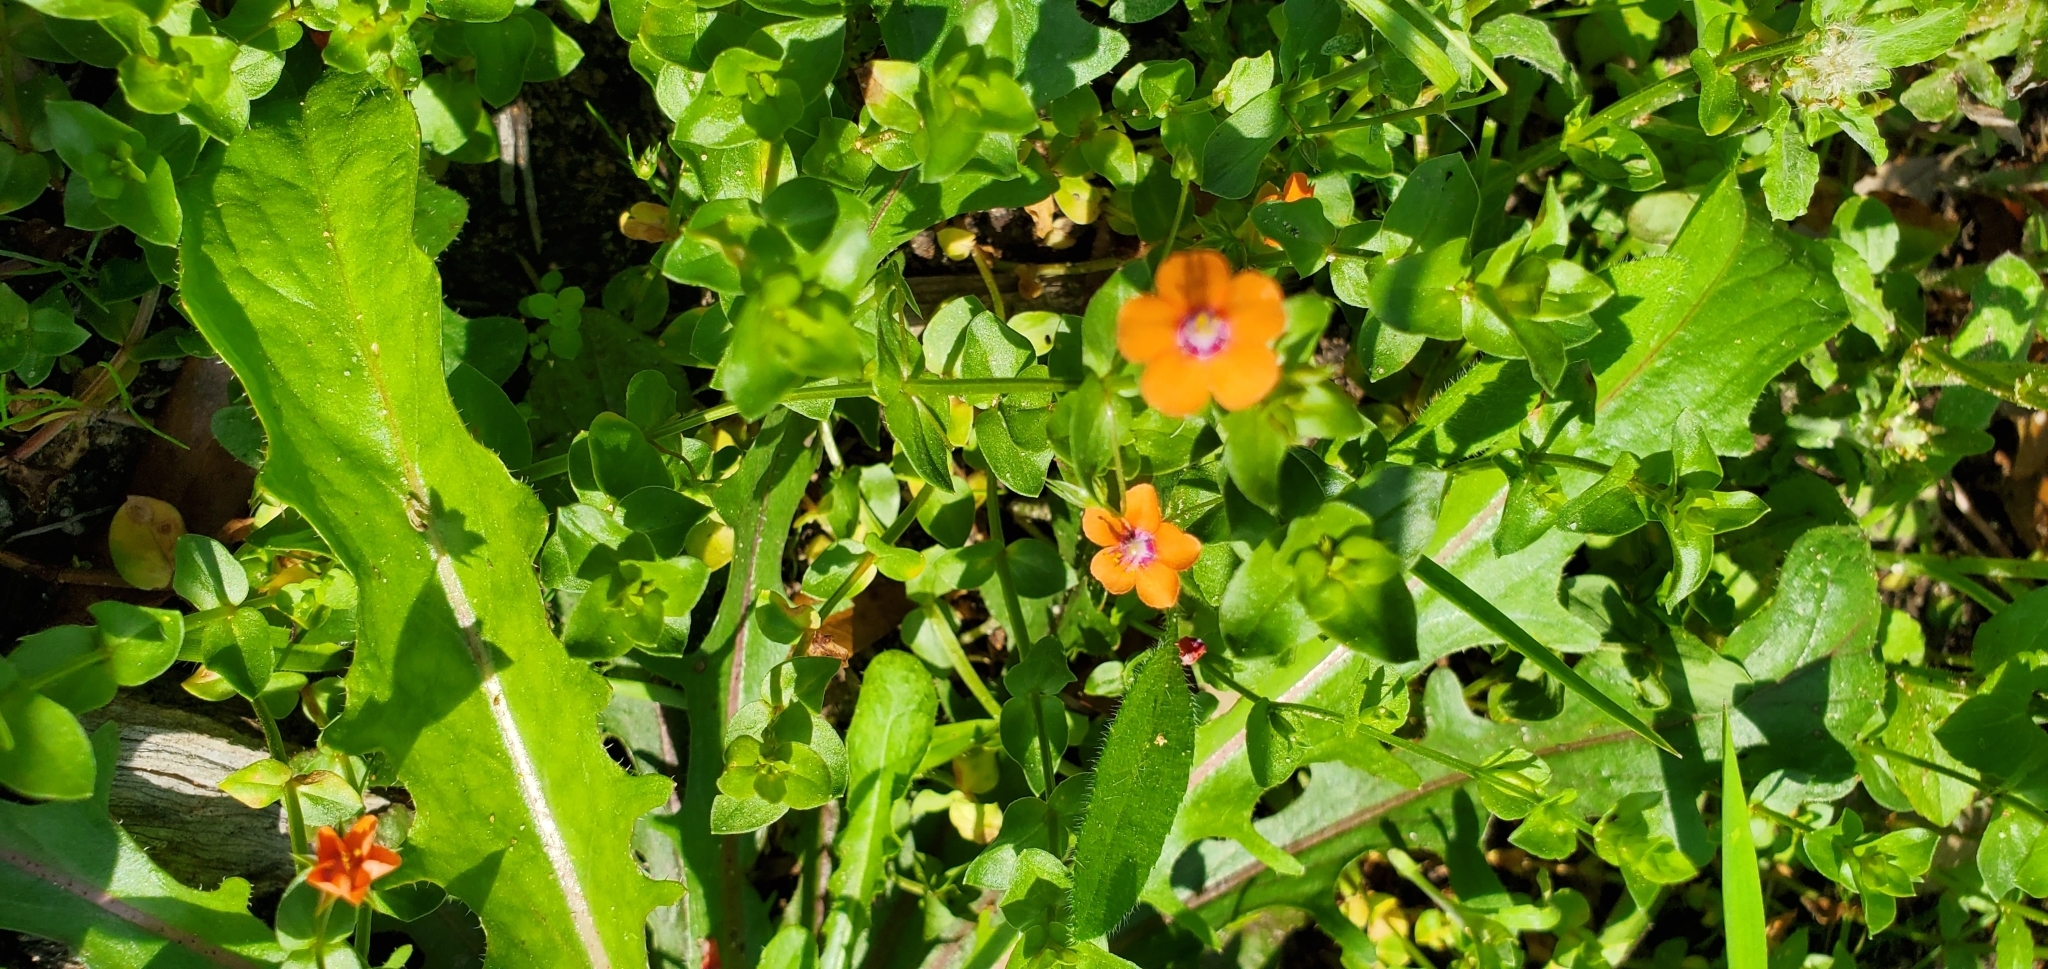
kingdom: Plantae
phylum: Tracheophyta
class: Magnoliopsida
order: Ericales
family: Primulaceae
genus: Lysimachia
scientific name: Lysimachia arvensis
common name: Scarlet pimpernel
